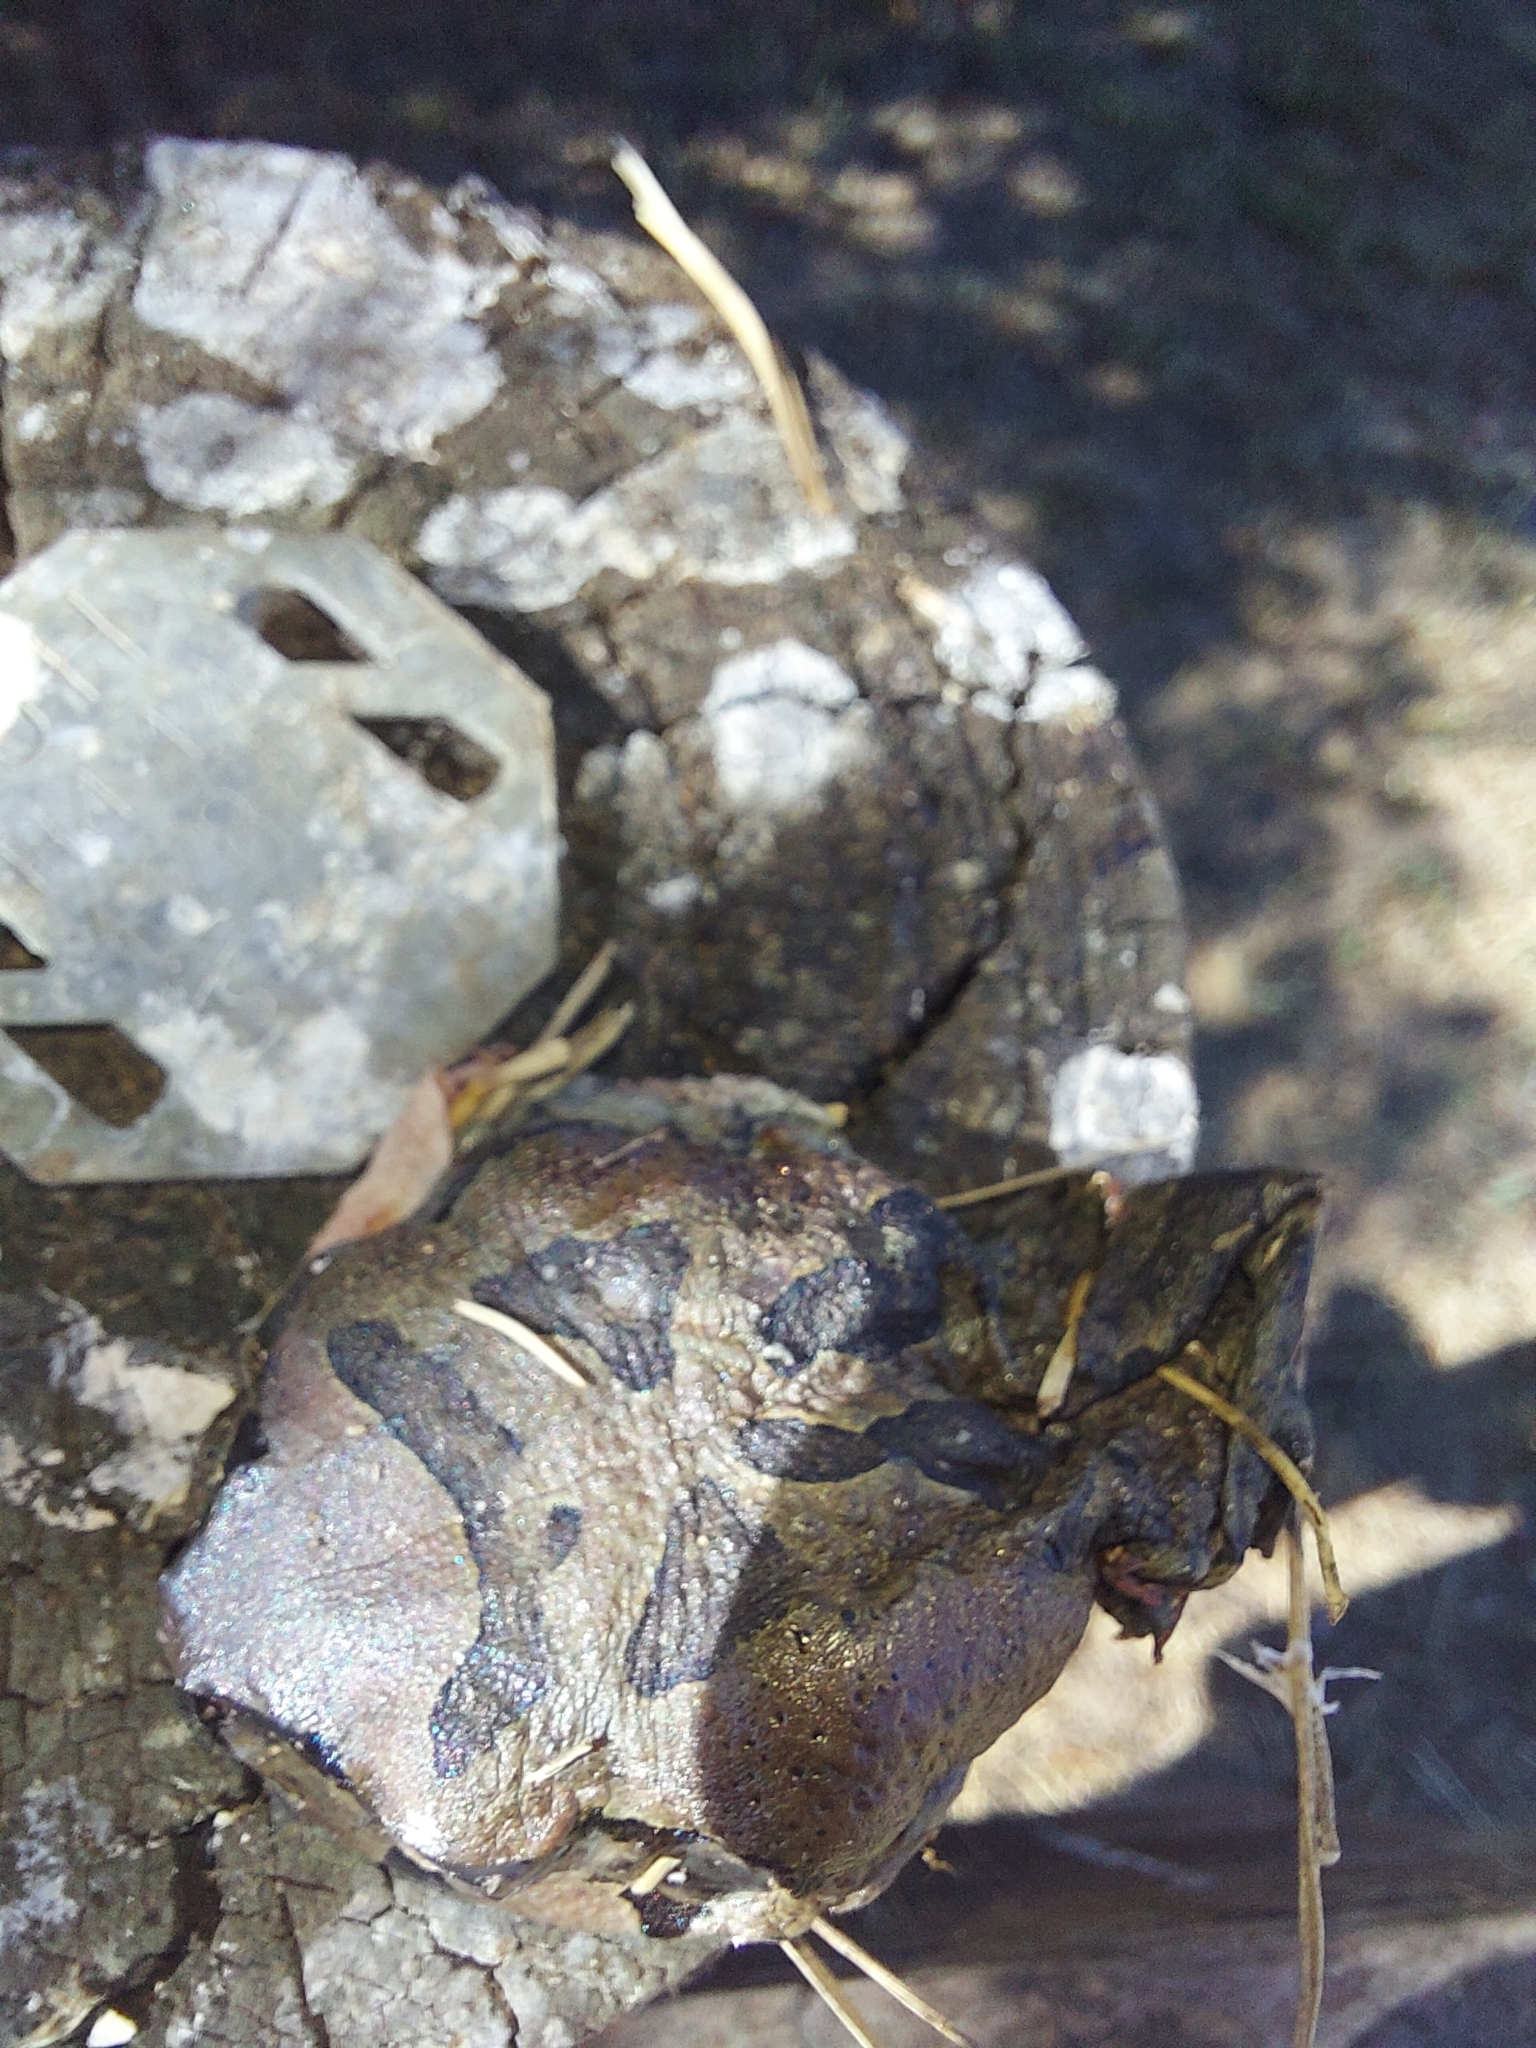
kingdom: Animalia
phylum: Chordata
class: Amphibia
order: Anura
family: Bufonidae
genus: Sclerophrys
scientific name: Sclerophrys capensis
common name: Ranger’s toad
